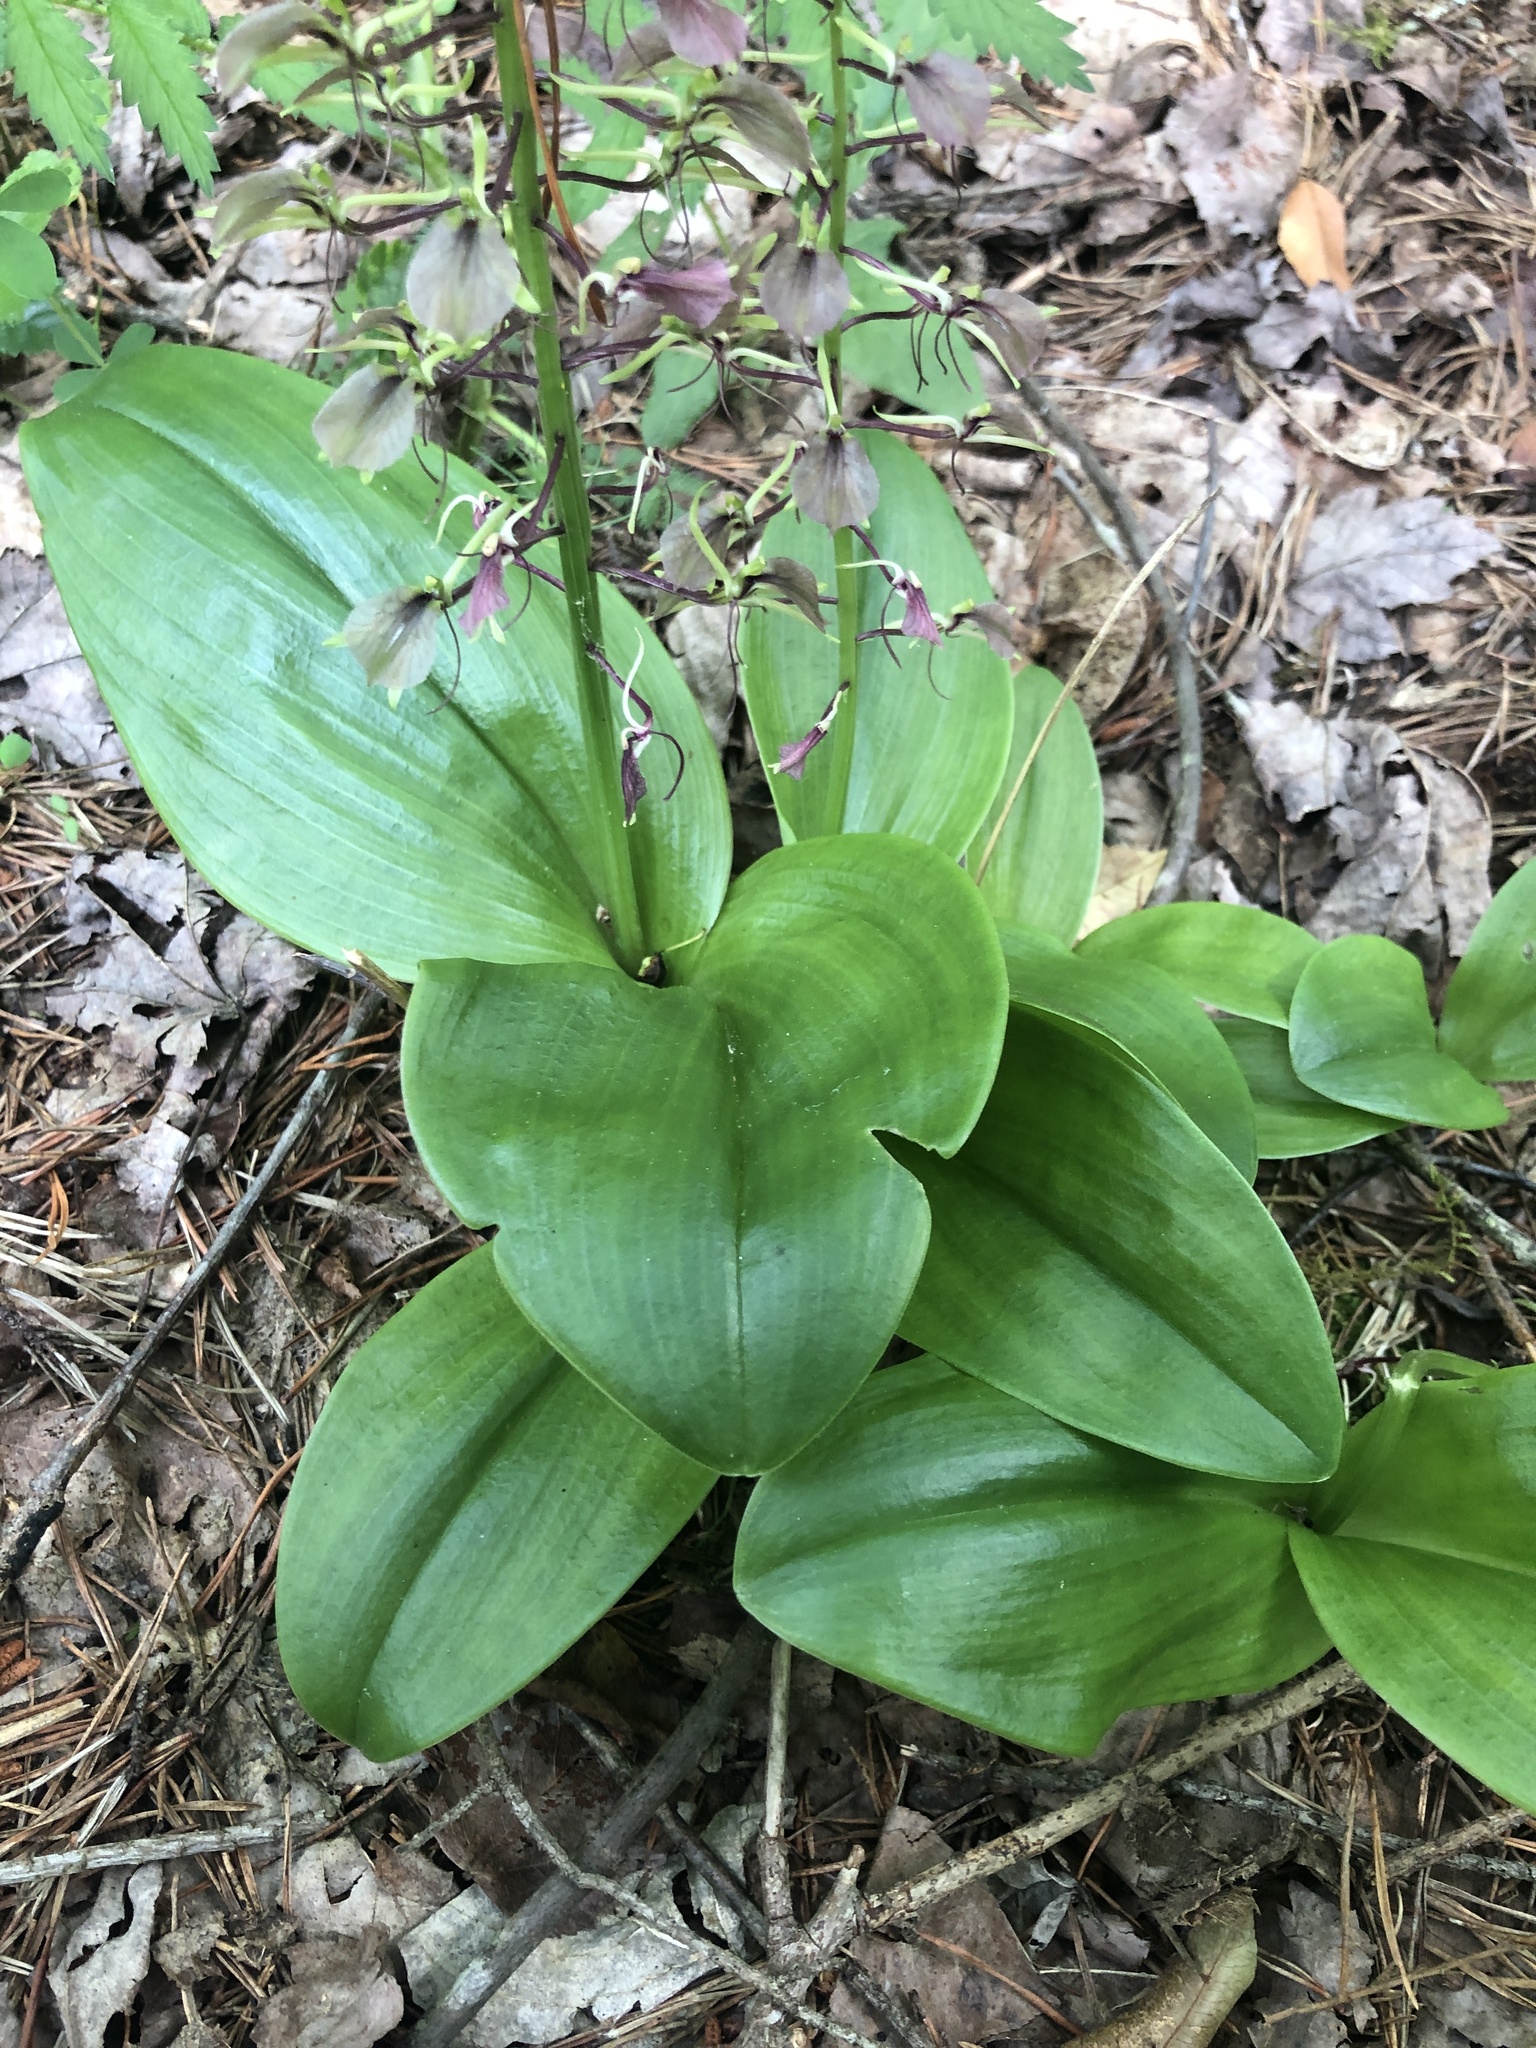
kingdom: Plantae
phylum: Tracheophyta
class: Liliopsida
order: Asparagales
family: Orchidaceae
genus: Liparis
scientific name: Liparis liliifolia
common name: Brown wide-lip orchid
